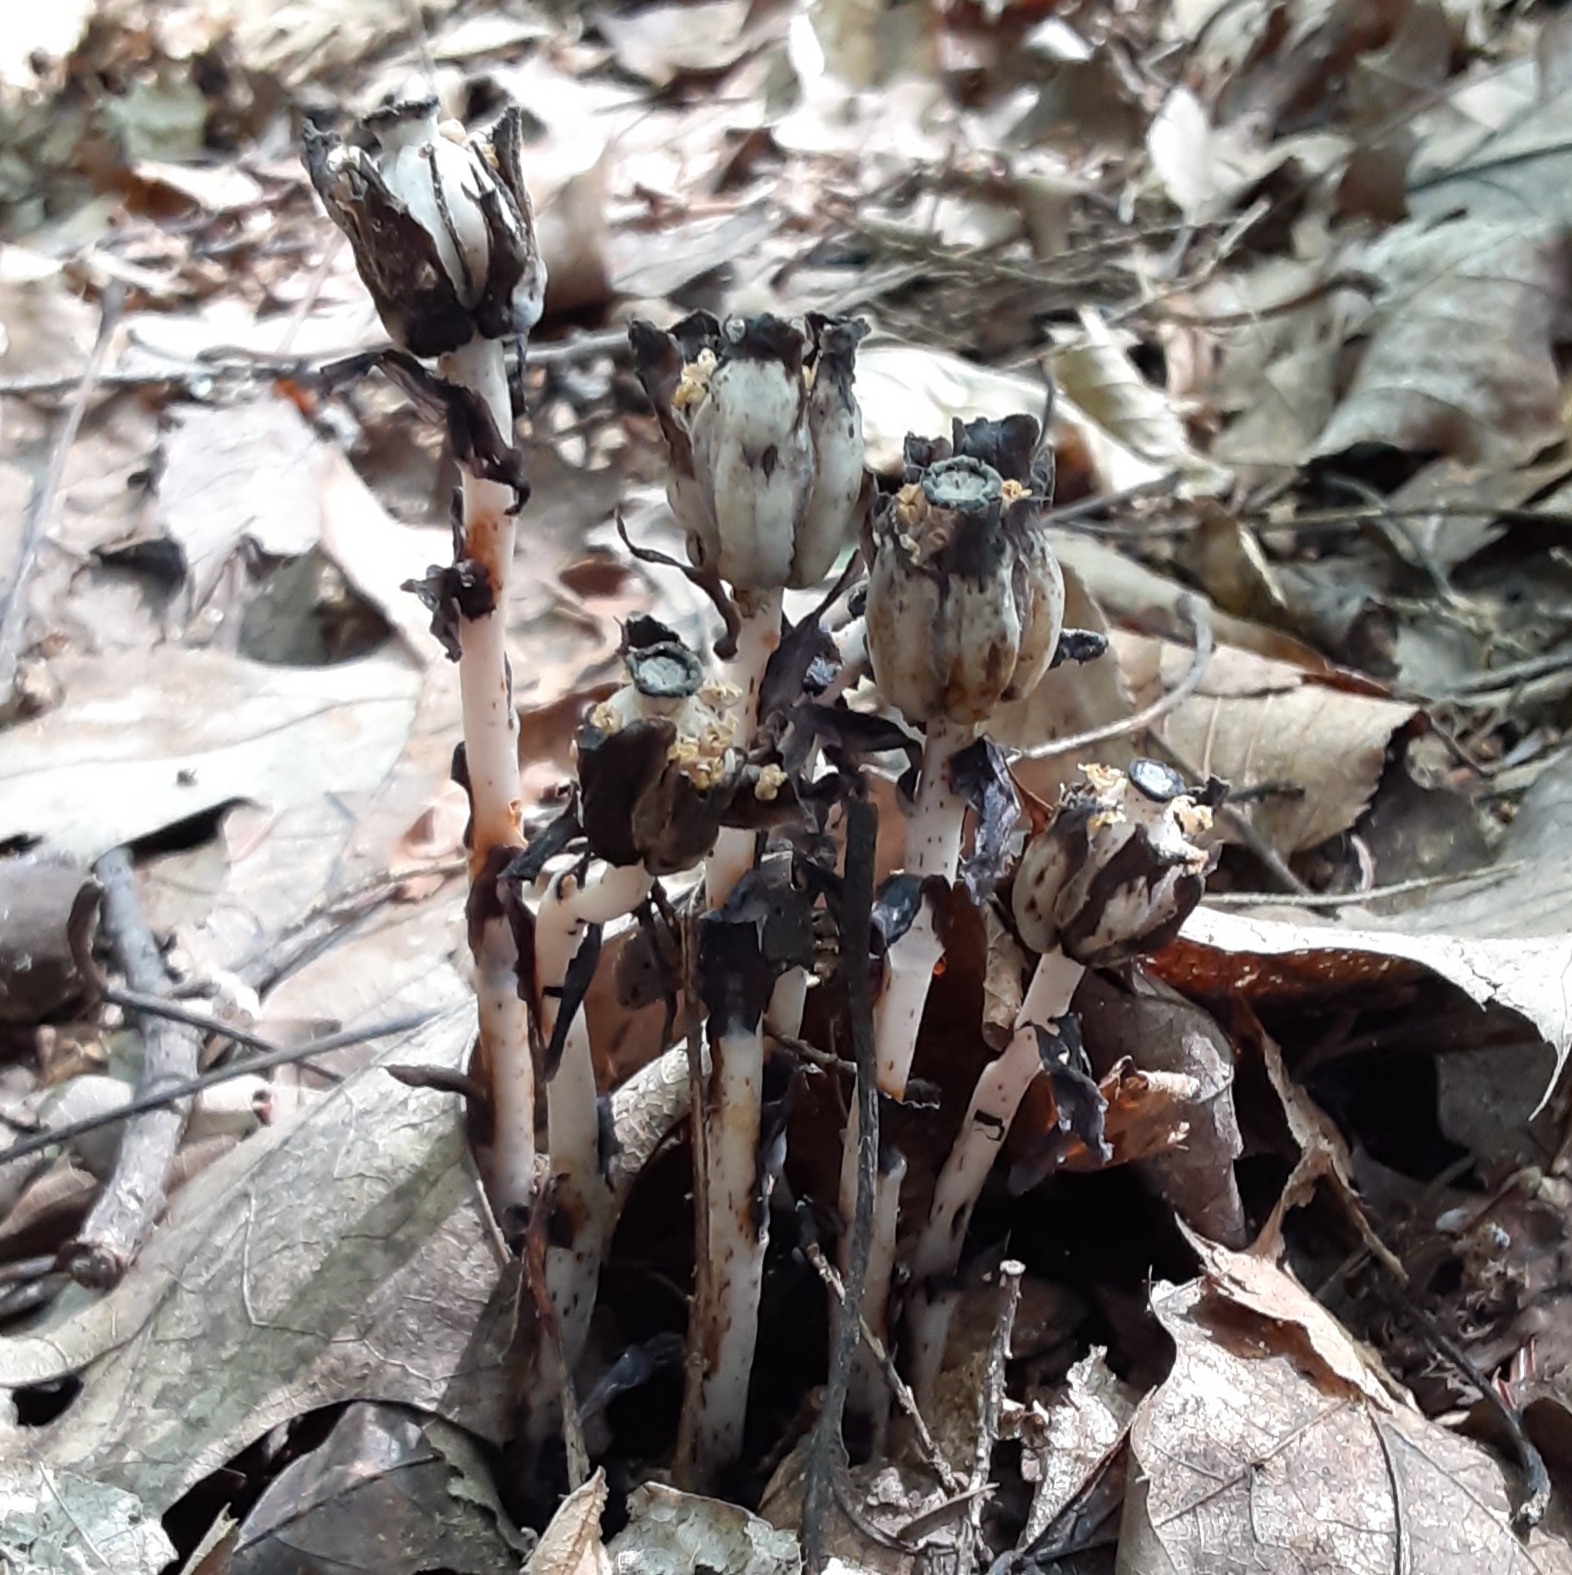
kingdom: Plantae
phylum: Tracheophyta
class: Magnoliopsida
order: Ericales
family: Ericaceae
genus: Monotropa
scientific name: Monotropa uniflora
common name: Convulsion root
